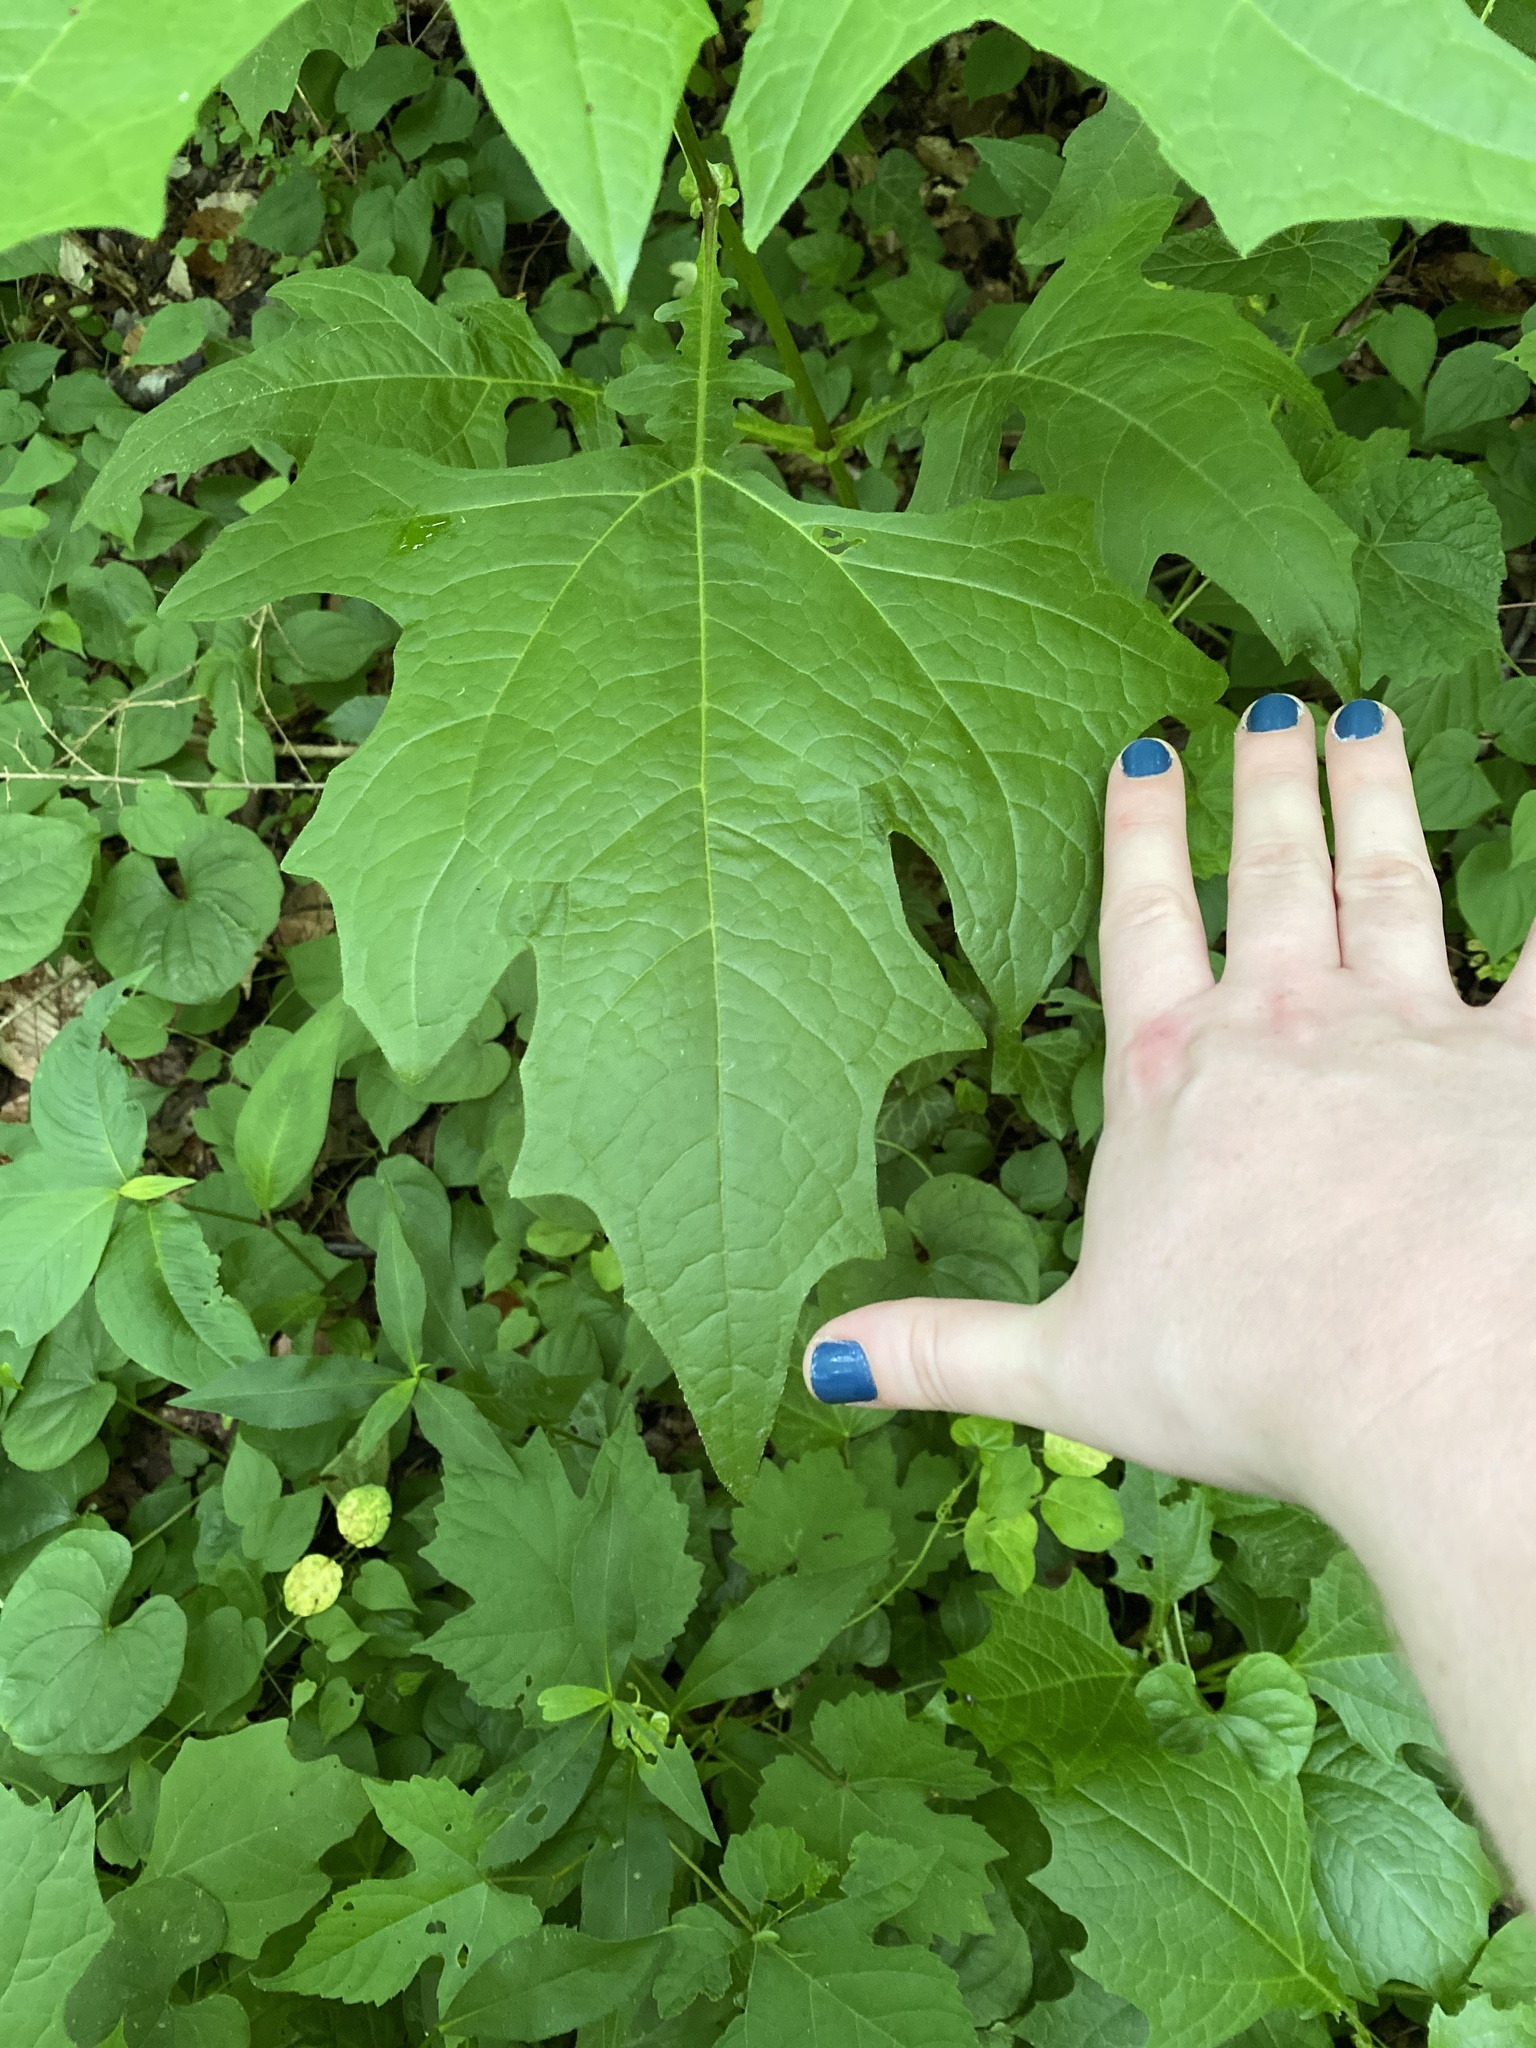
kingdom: Plantae
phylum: Tracheophyta
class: Magnoliopsida
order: Asterales
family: Asteraceae
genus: Smallanthus
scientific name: Smallanthus uvedalia
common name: Bear's-foot
